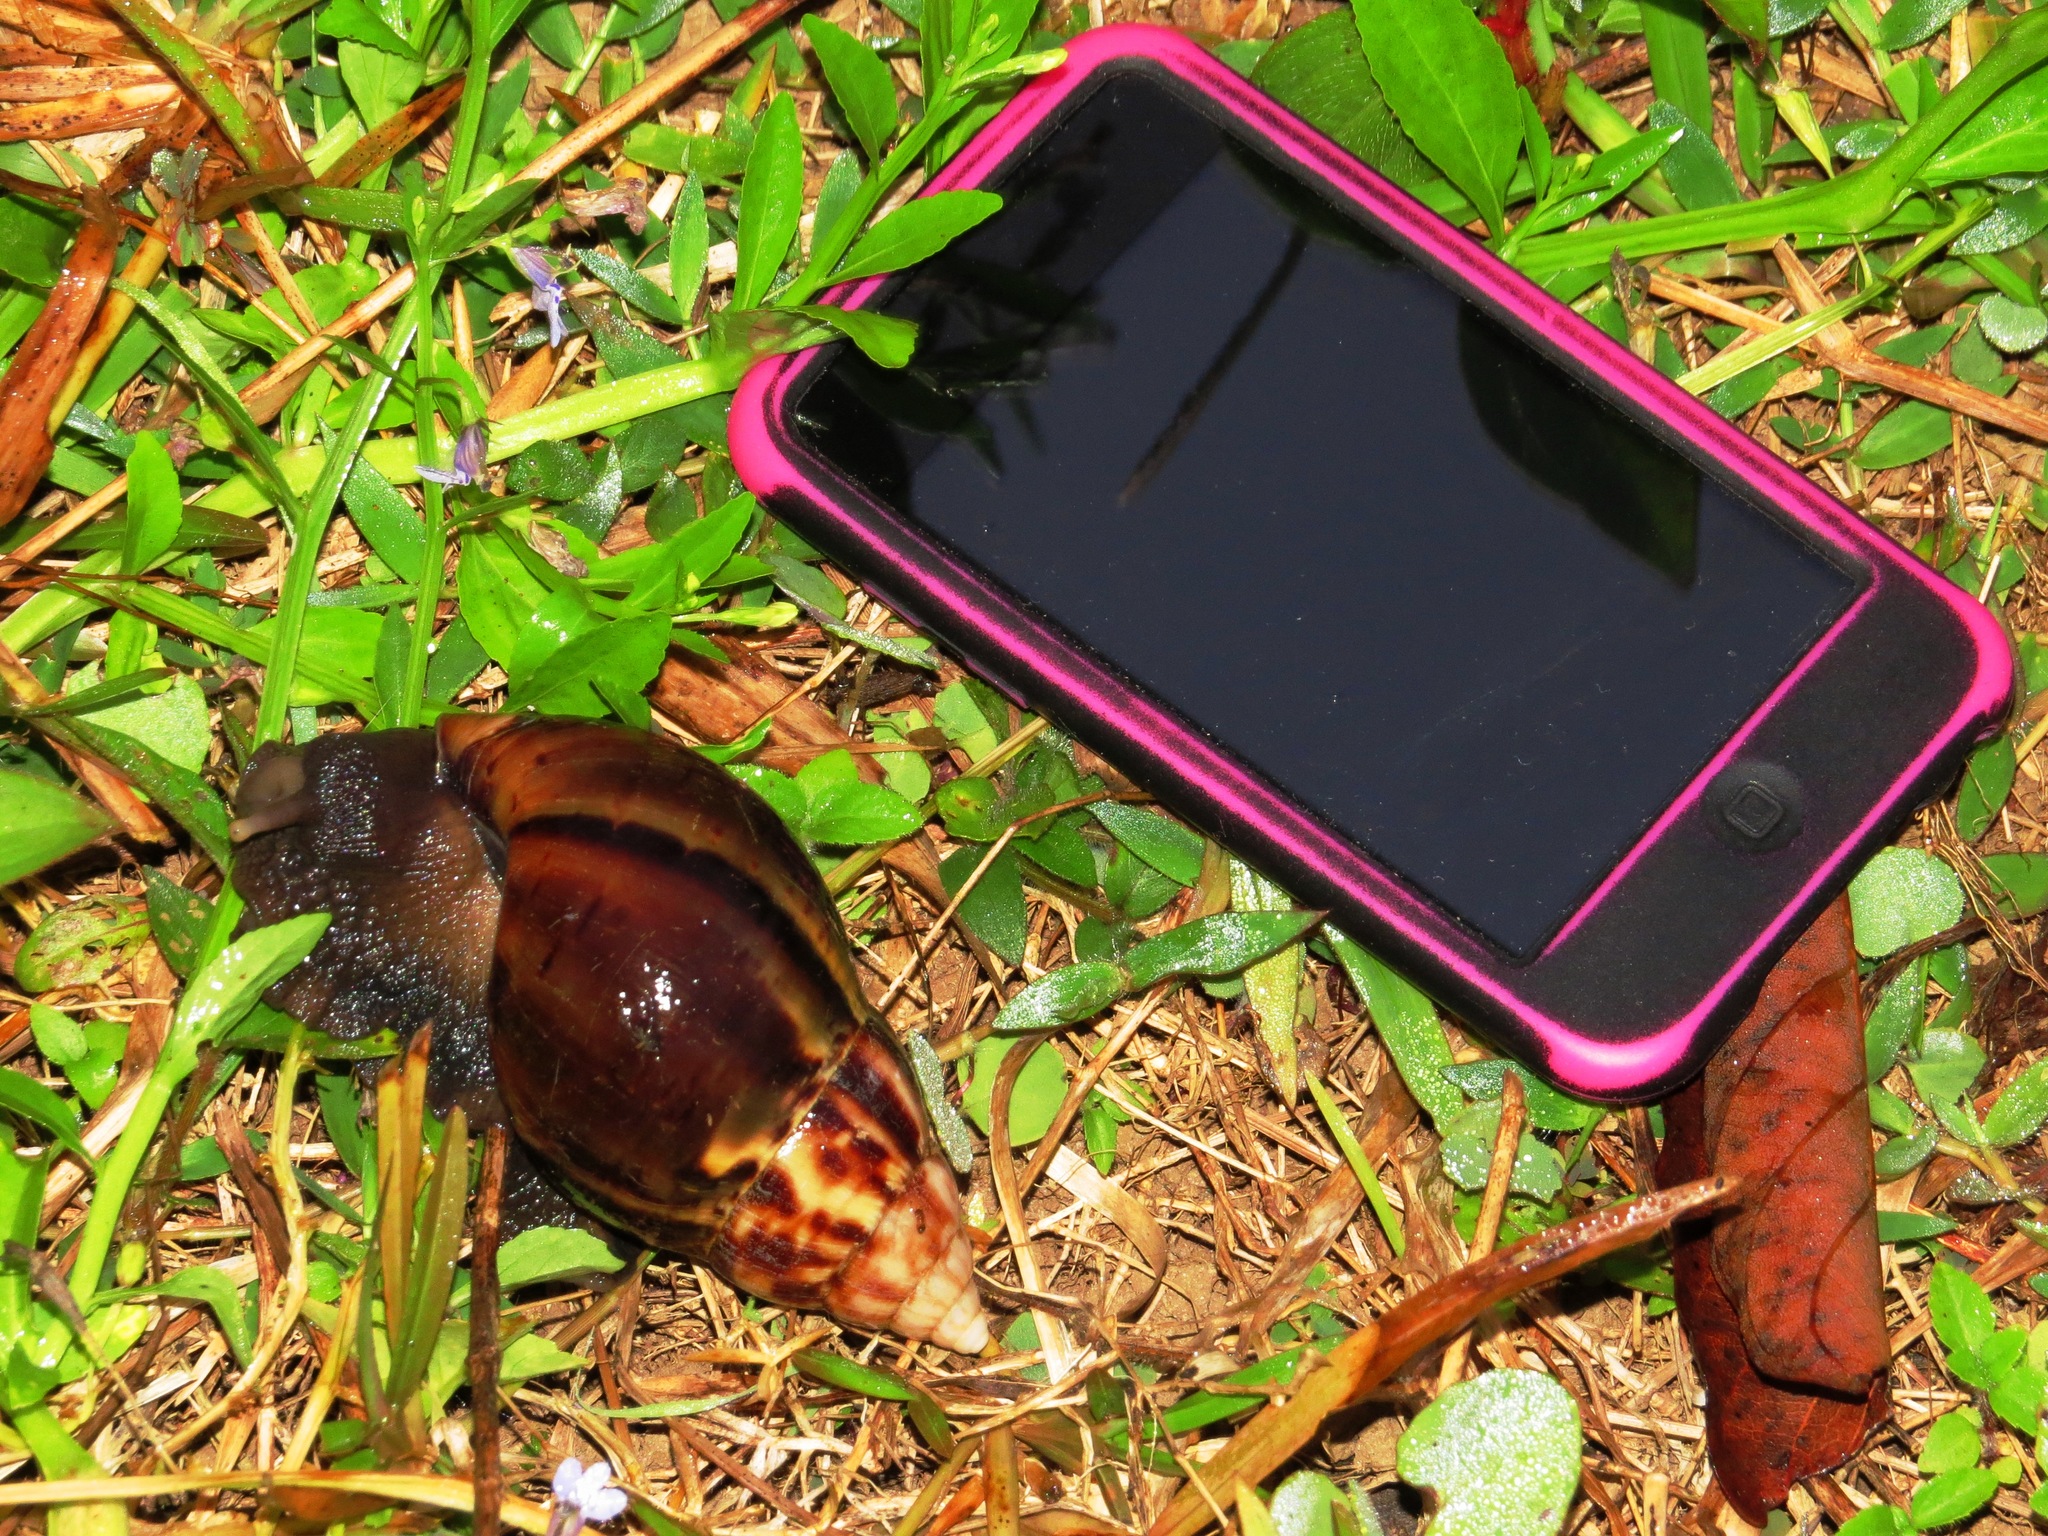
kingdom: Animalia
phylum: Mollusca
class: Gastropoda
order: Stylommatophora
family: Achatinidae
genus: Lissachatina
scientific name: Lissachatina fulica
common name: Giant african snail
